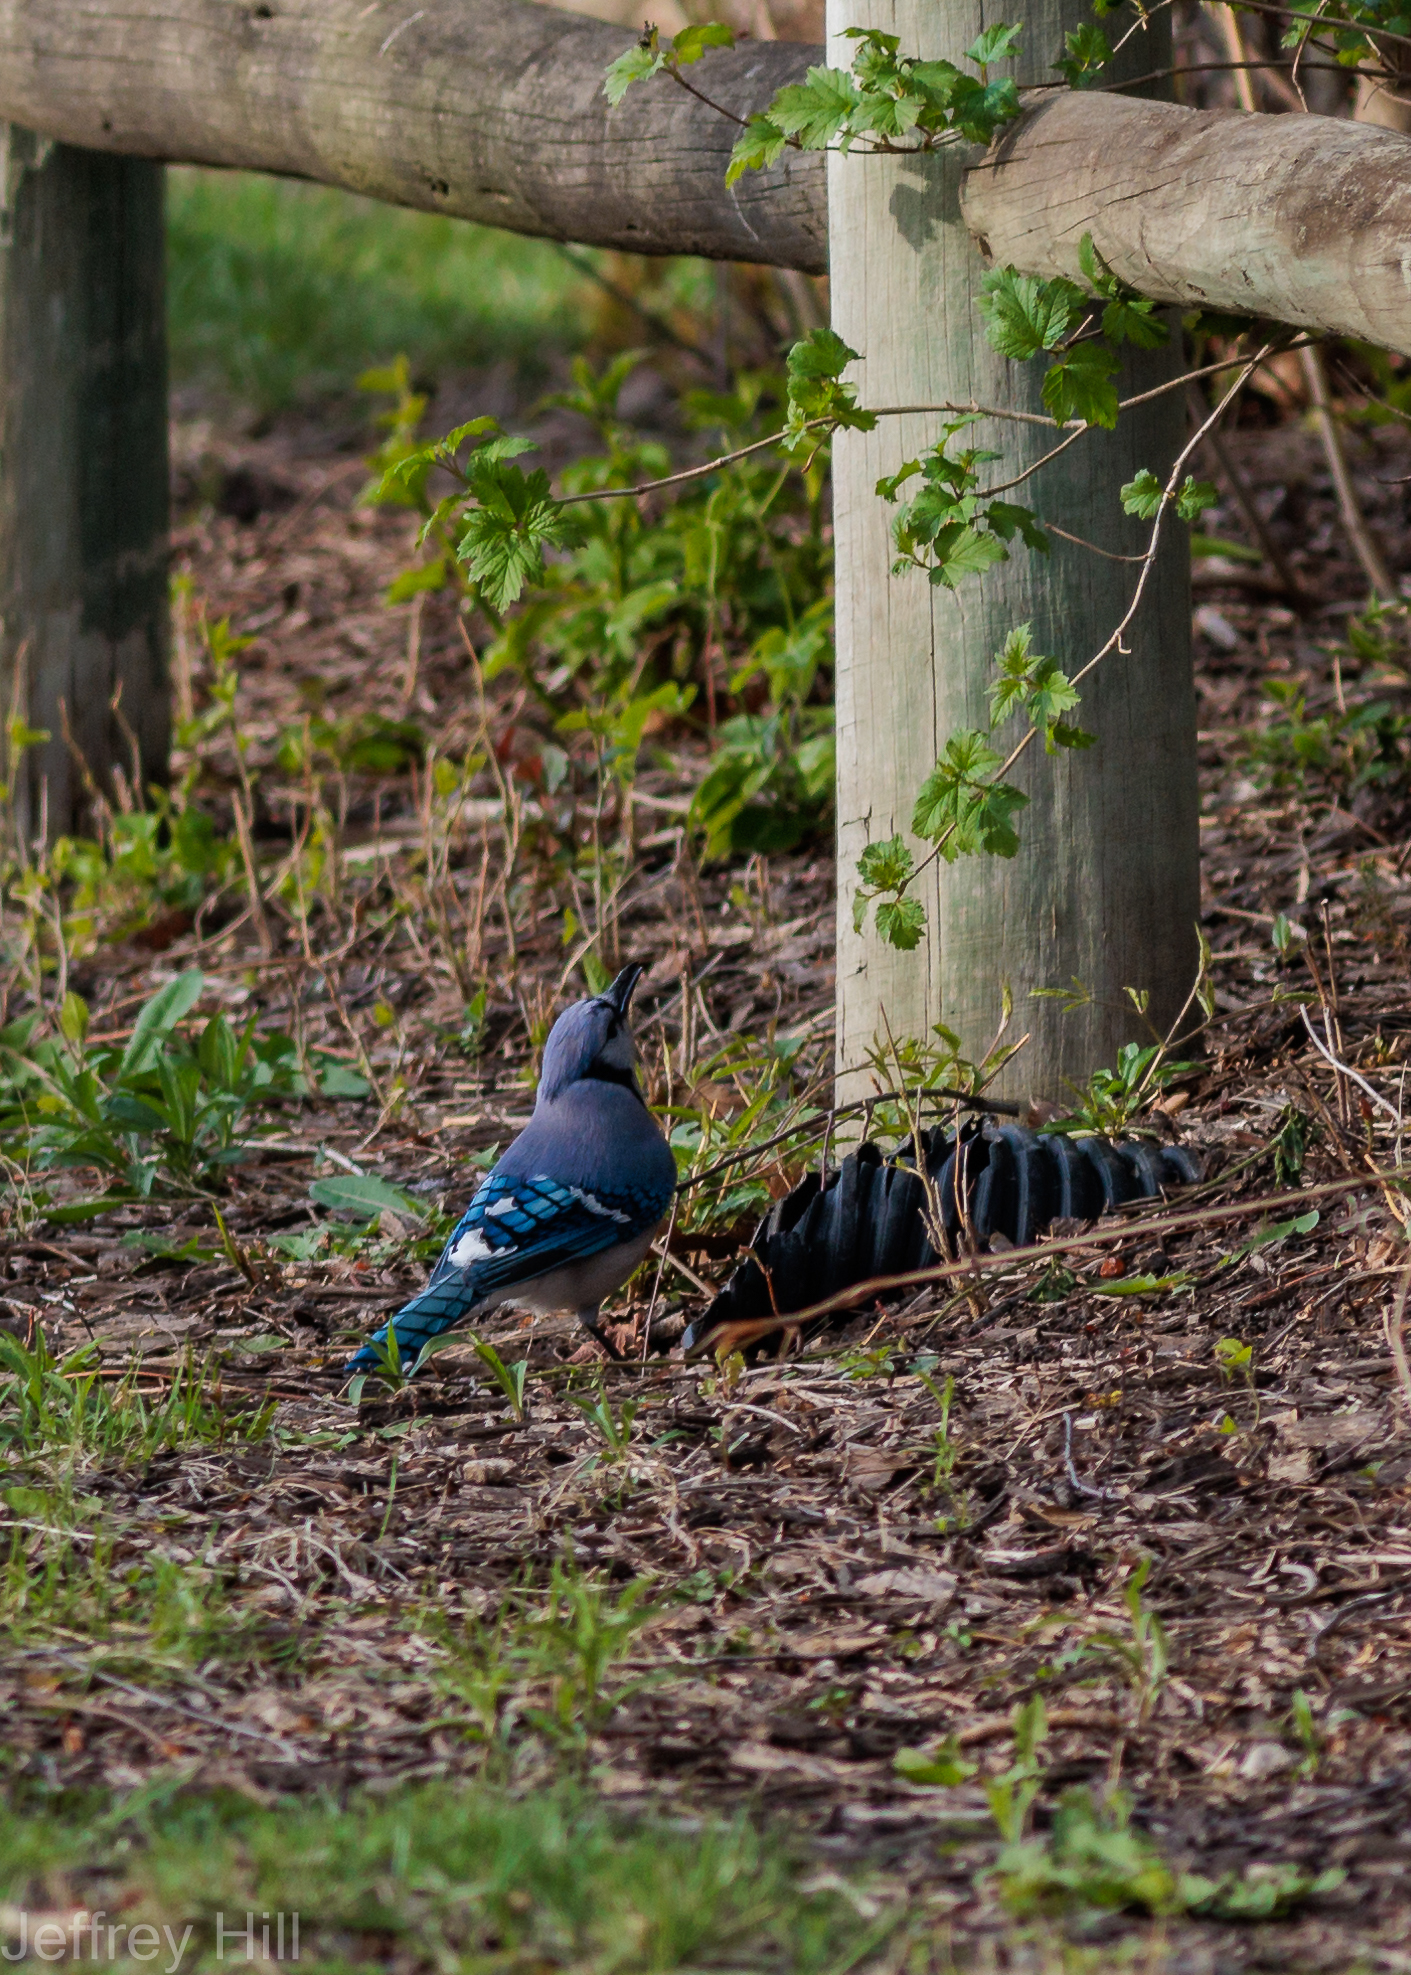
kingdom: Animalia
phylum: Chordata
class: Aves
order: Passeriformes
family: Corvidae
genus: Cyanocitta
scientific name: Cyanocitta cristata
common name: Blue jay
